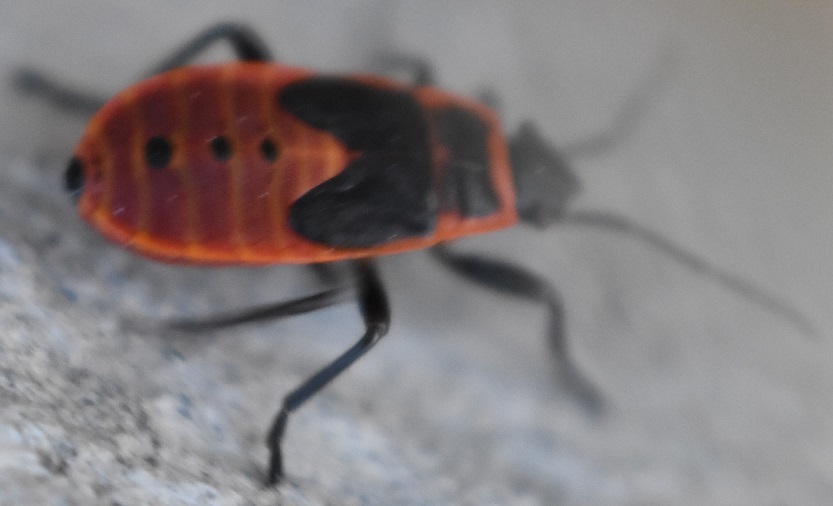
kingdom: Animalia
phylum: Arthropoda
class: Insecta
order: Hemiptera
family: Pyrrhocoridae
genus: Pyrrhocoris
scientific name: Pyrrhocoris apterus
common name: Firebug
